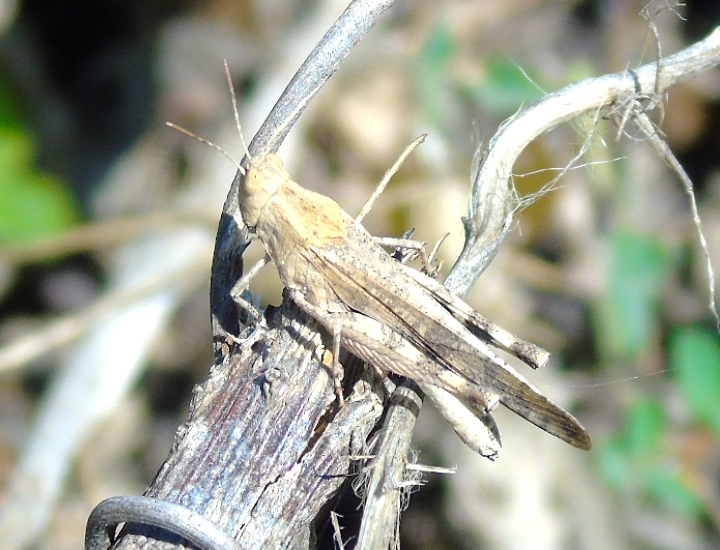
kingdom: Animalia
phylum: Arthropoda
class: Insecta
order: Orthoptera
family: Acrididae
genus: Lactista
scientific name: Lactista elota
